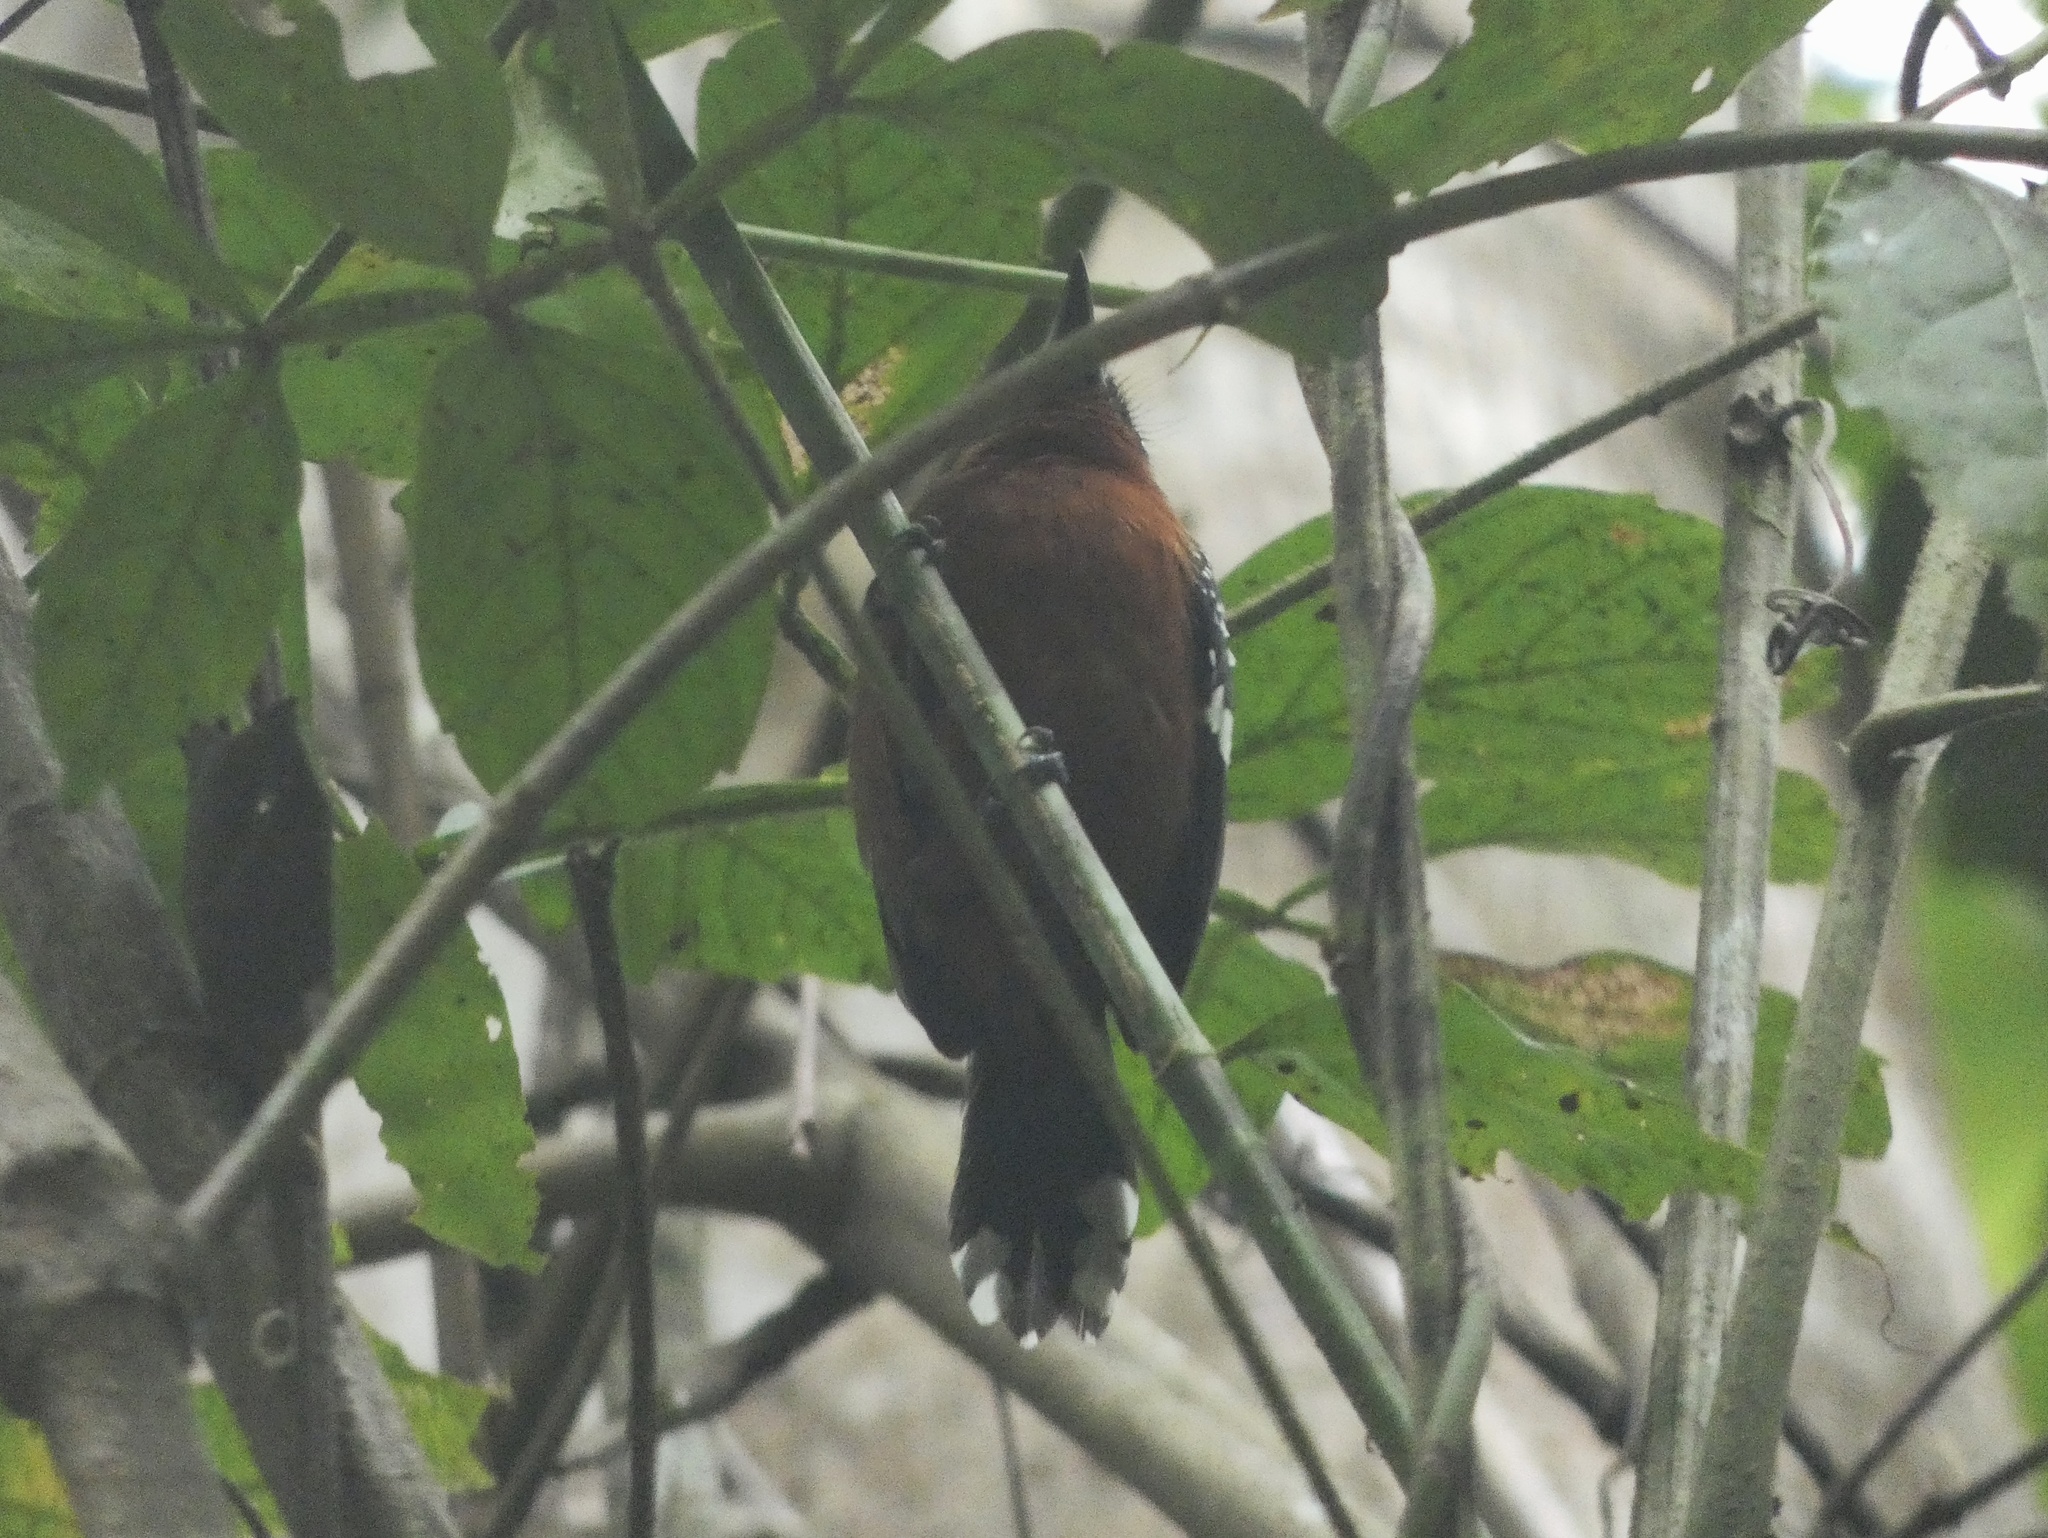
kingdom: Animalia
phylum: Chordata
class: Aves
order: Passeriformes
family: Thamnophilidae
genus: Microrhopias
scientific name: Microrhopias quixensis
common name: Dot-winged antwren
